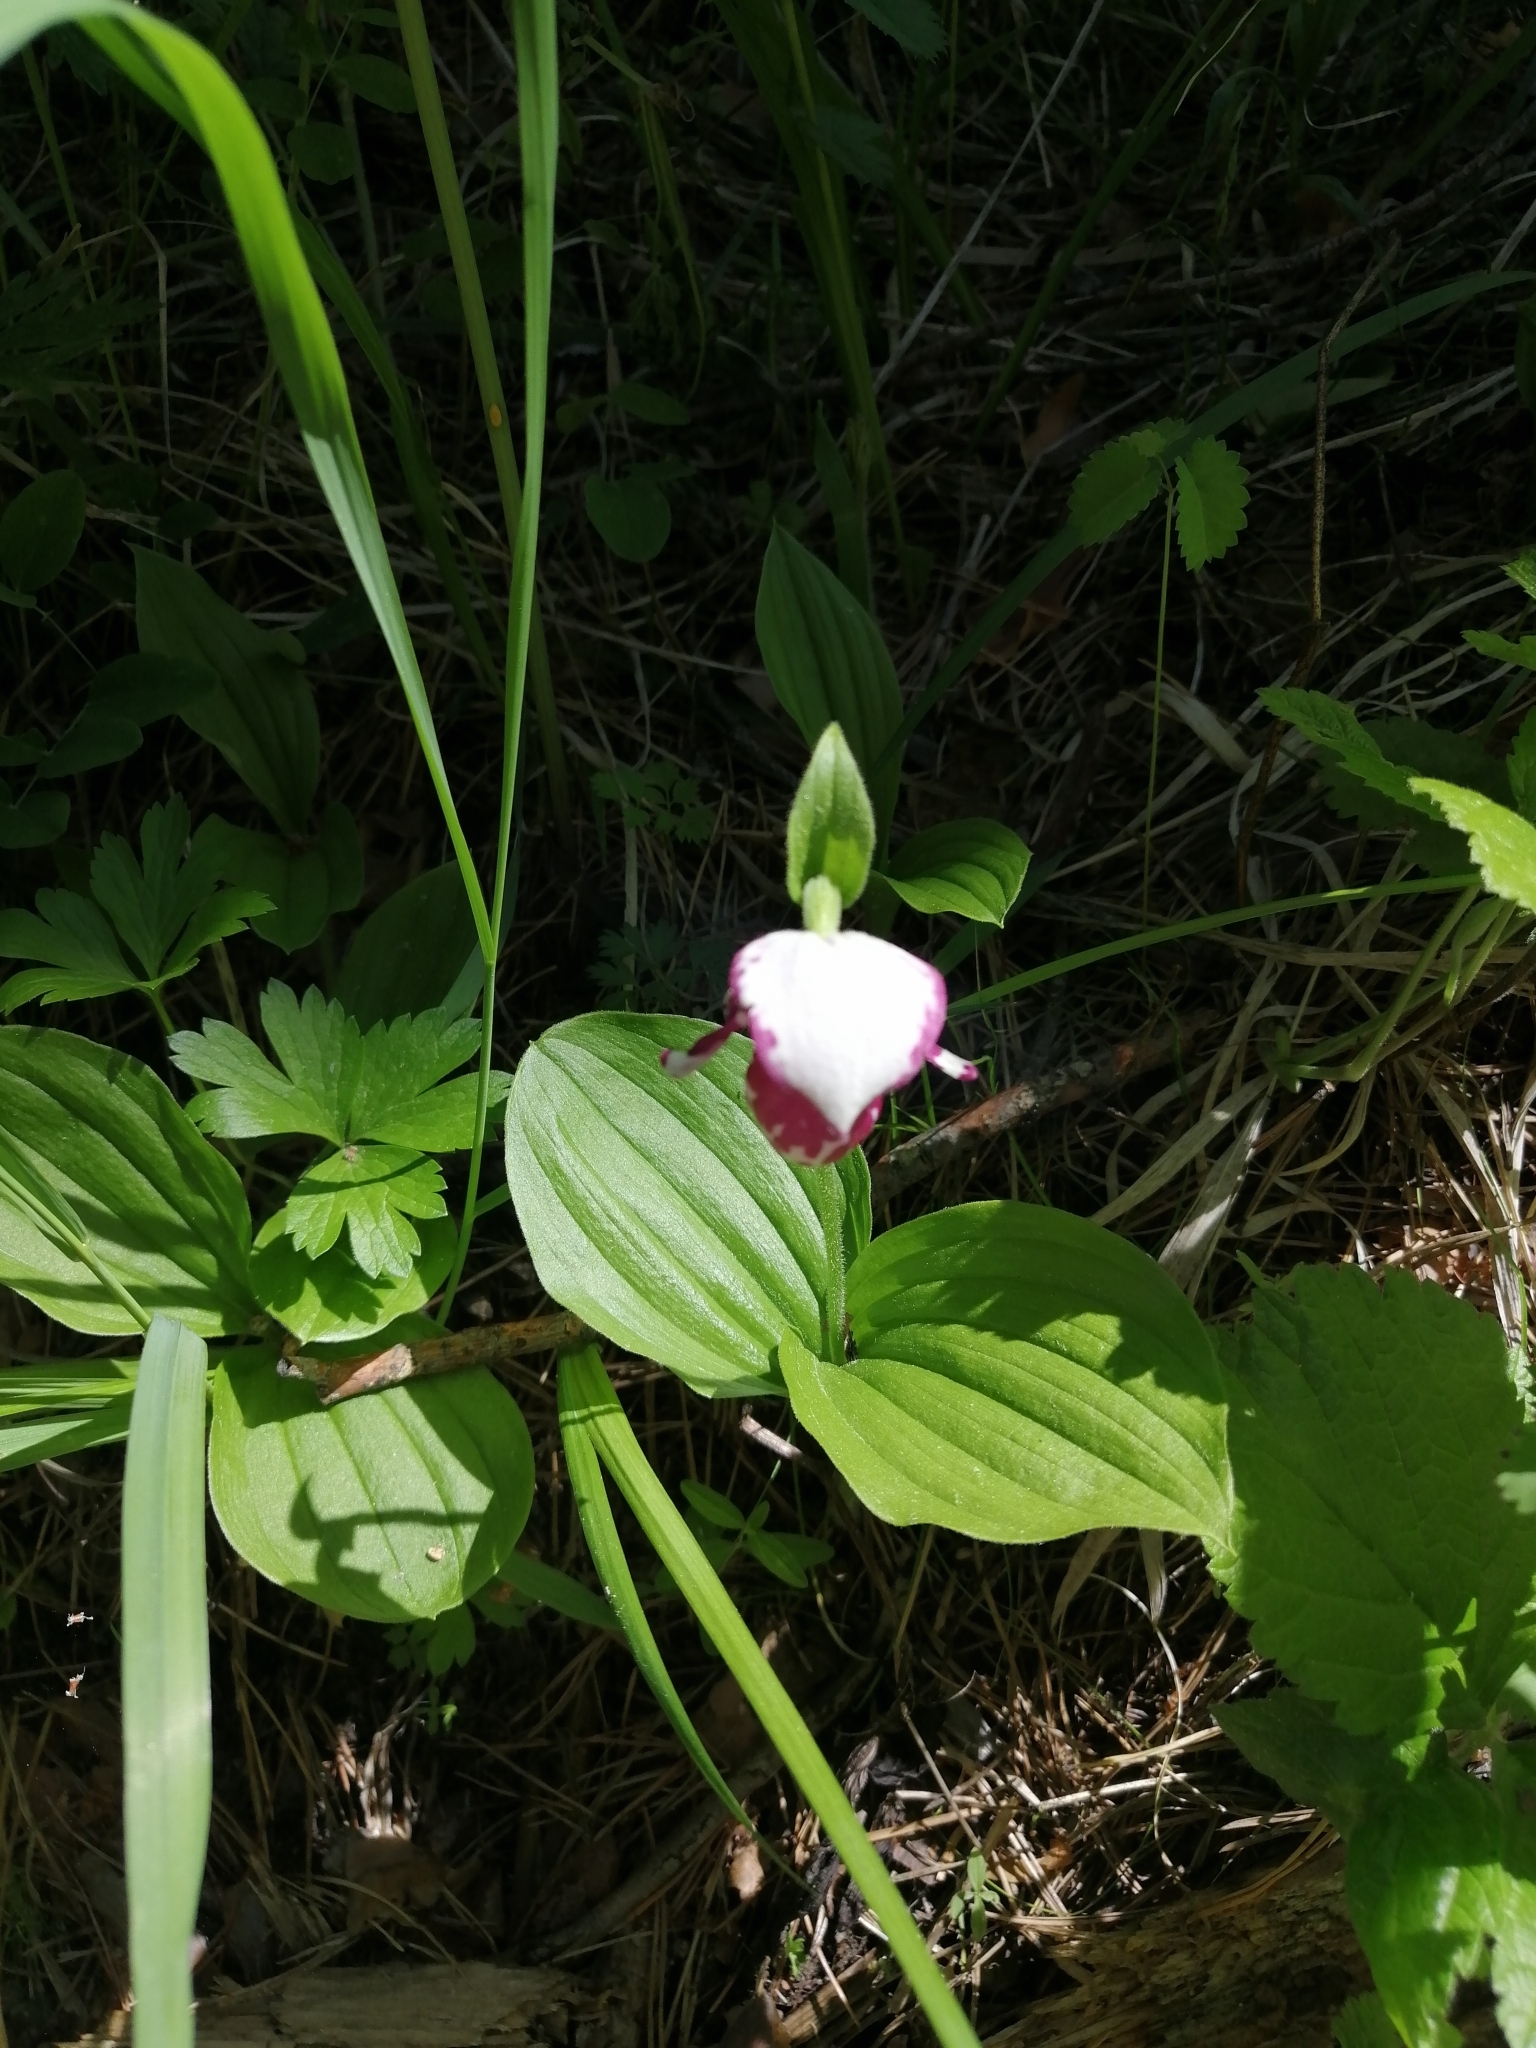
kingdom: Plantae
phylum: Tracheophyta
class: Liliopsida
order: Asparagales
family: Orchidaceae
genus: Cypripedium
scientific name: Cypripedium guttatum
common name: Pink lady slipper
